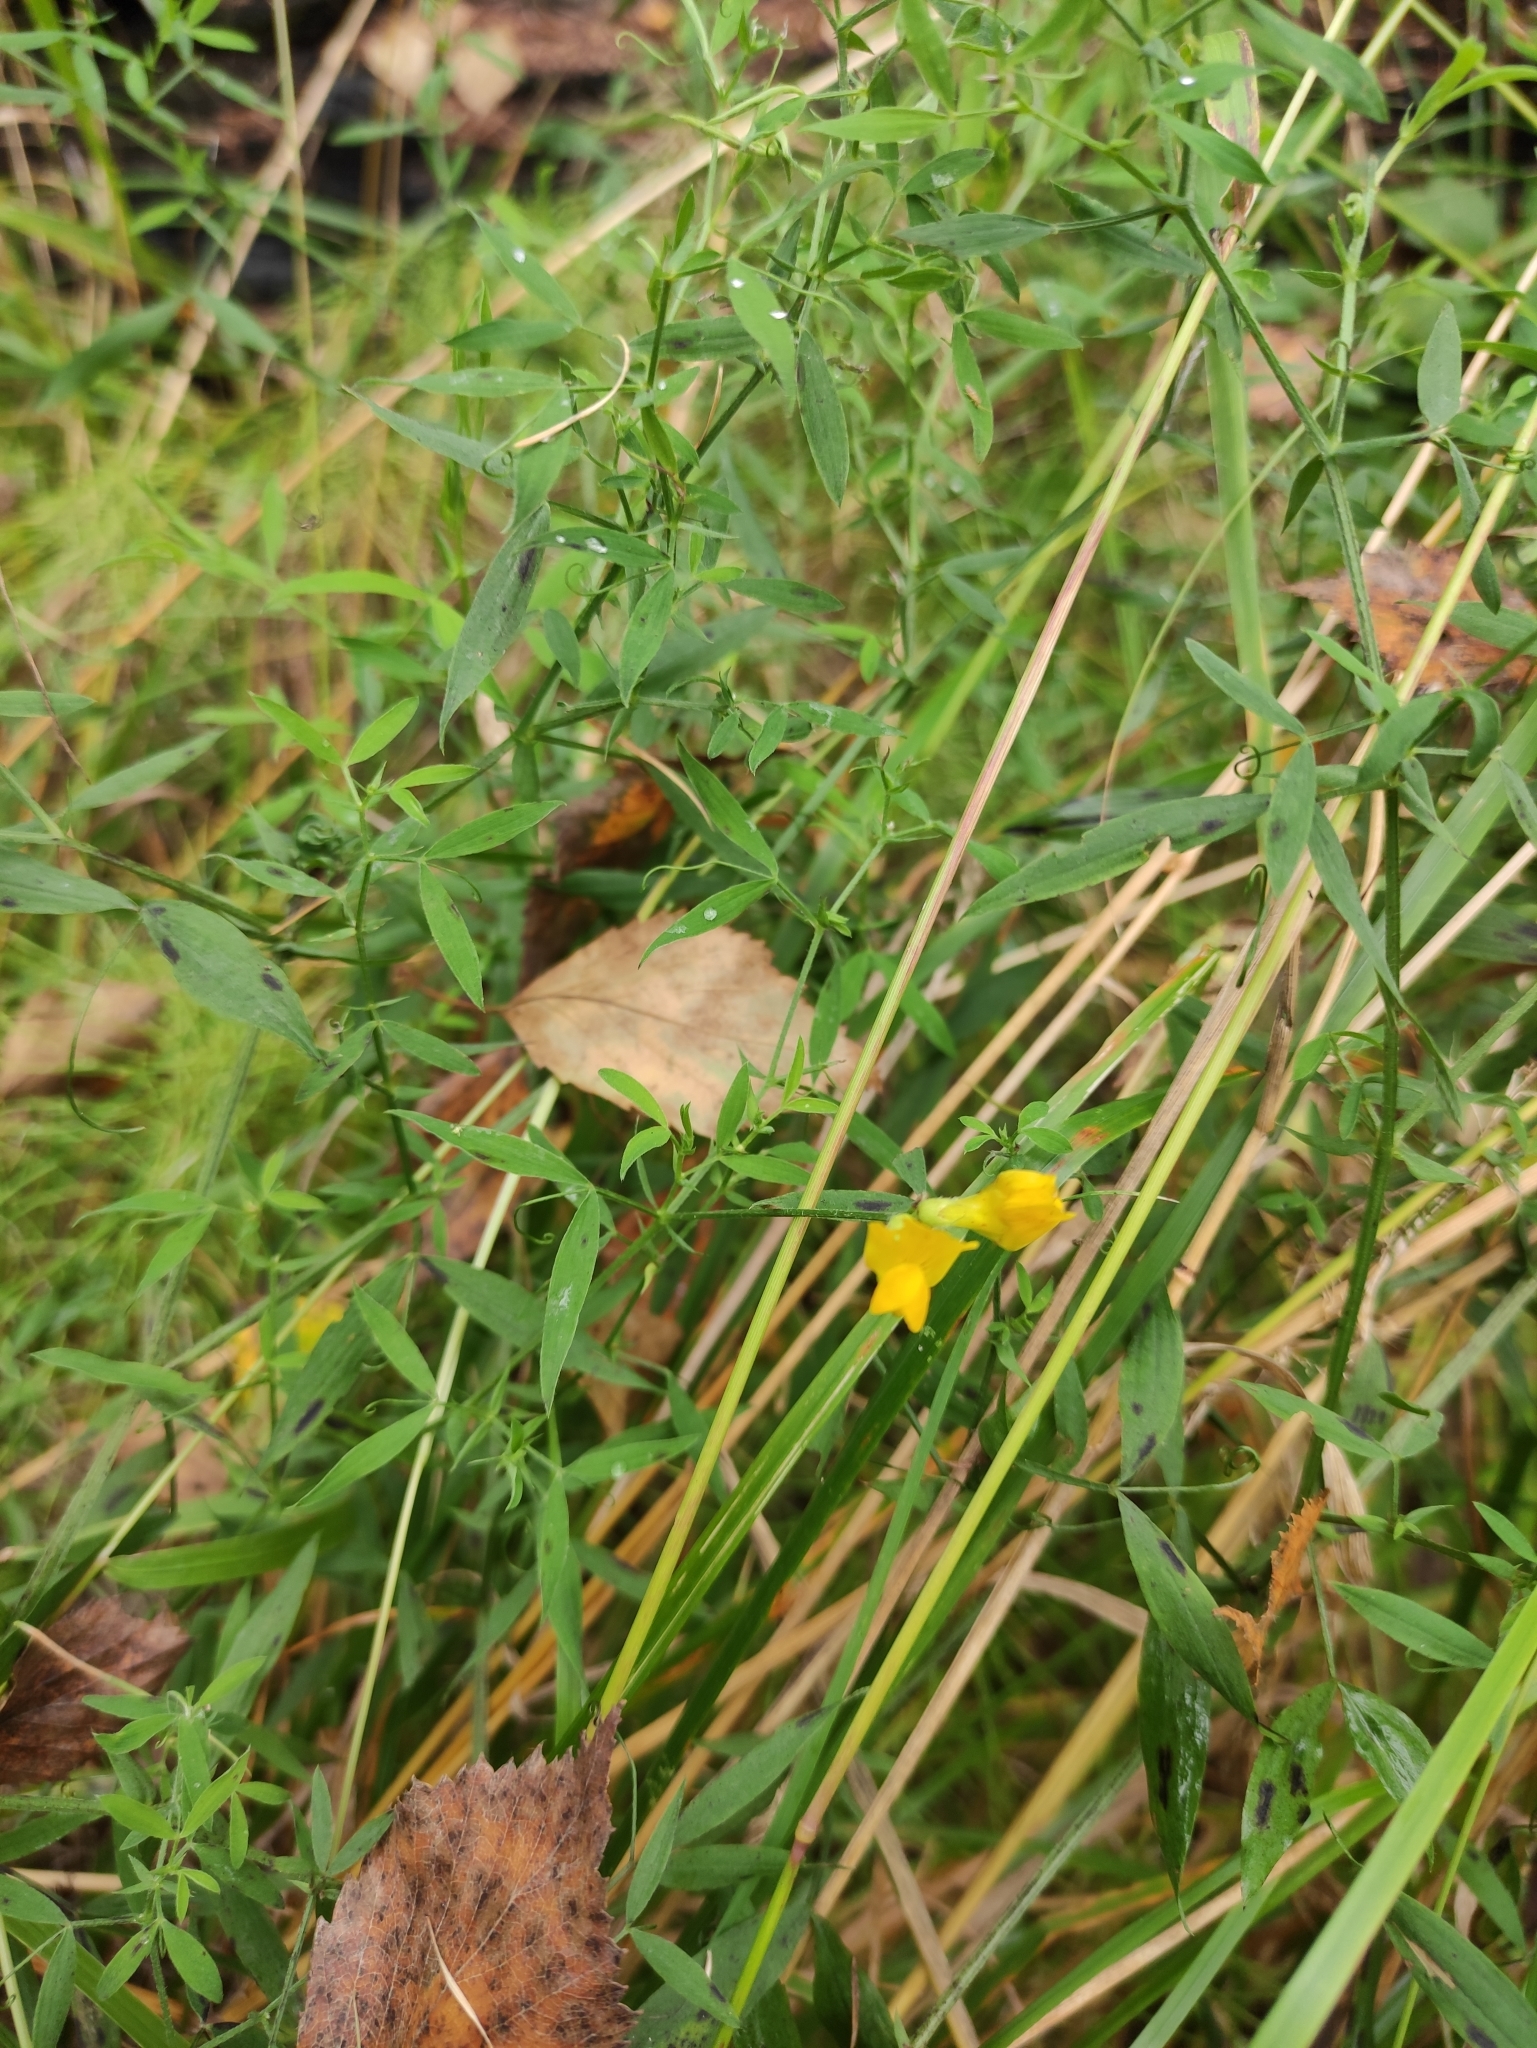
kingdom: Plantae
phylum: Tracheophyta
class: Magnoliopsida
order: Fabales
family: Fabaceae
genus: Lathyrus
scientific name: Lathyrus pratensis
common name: Meadow vetchling
